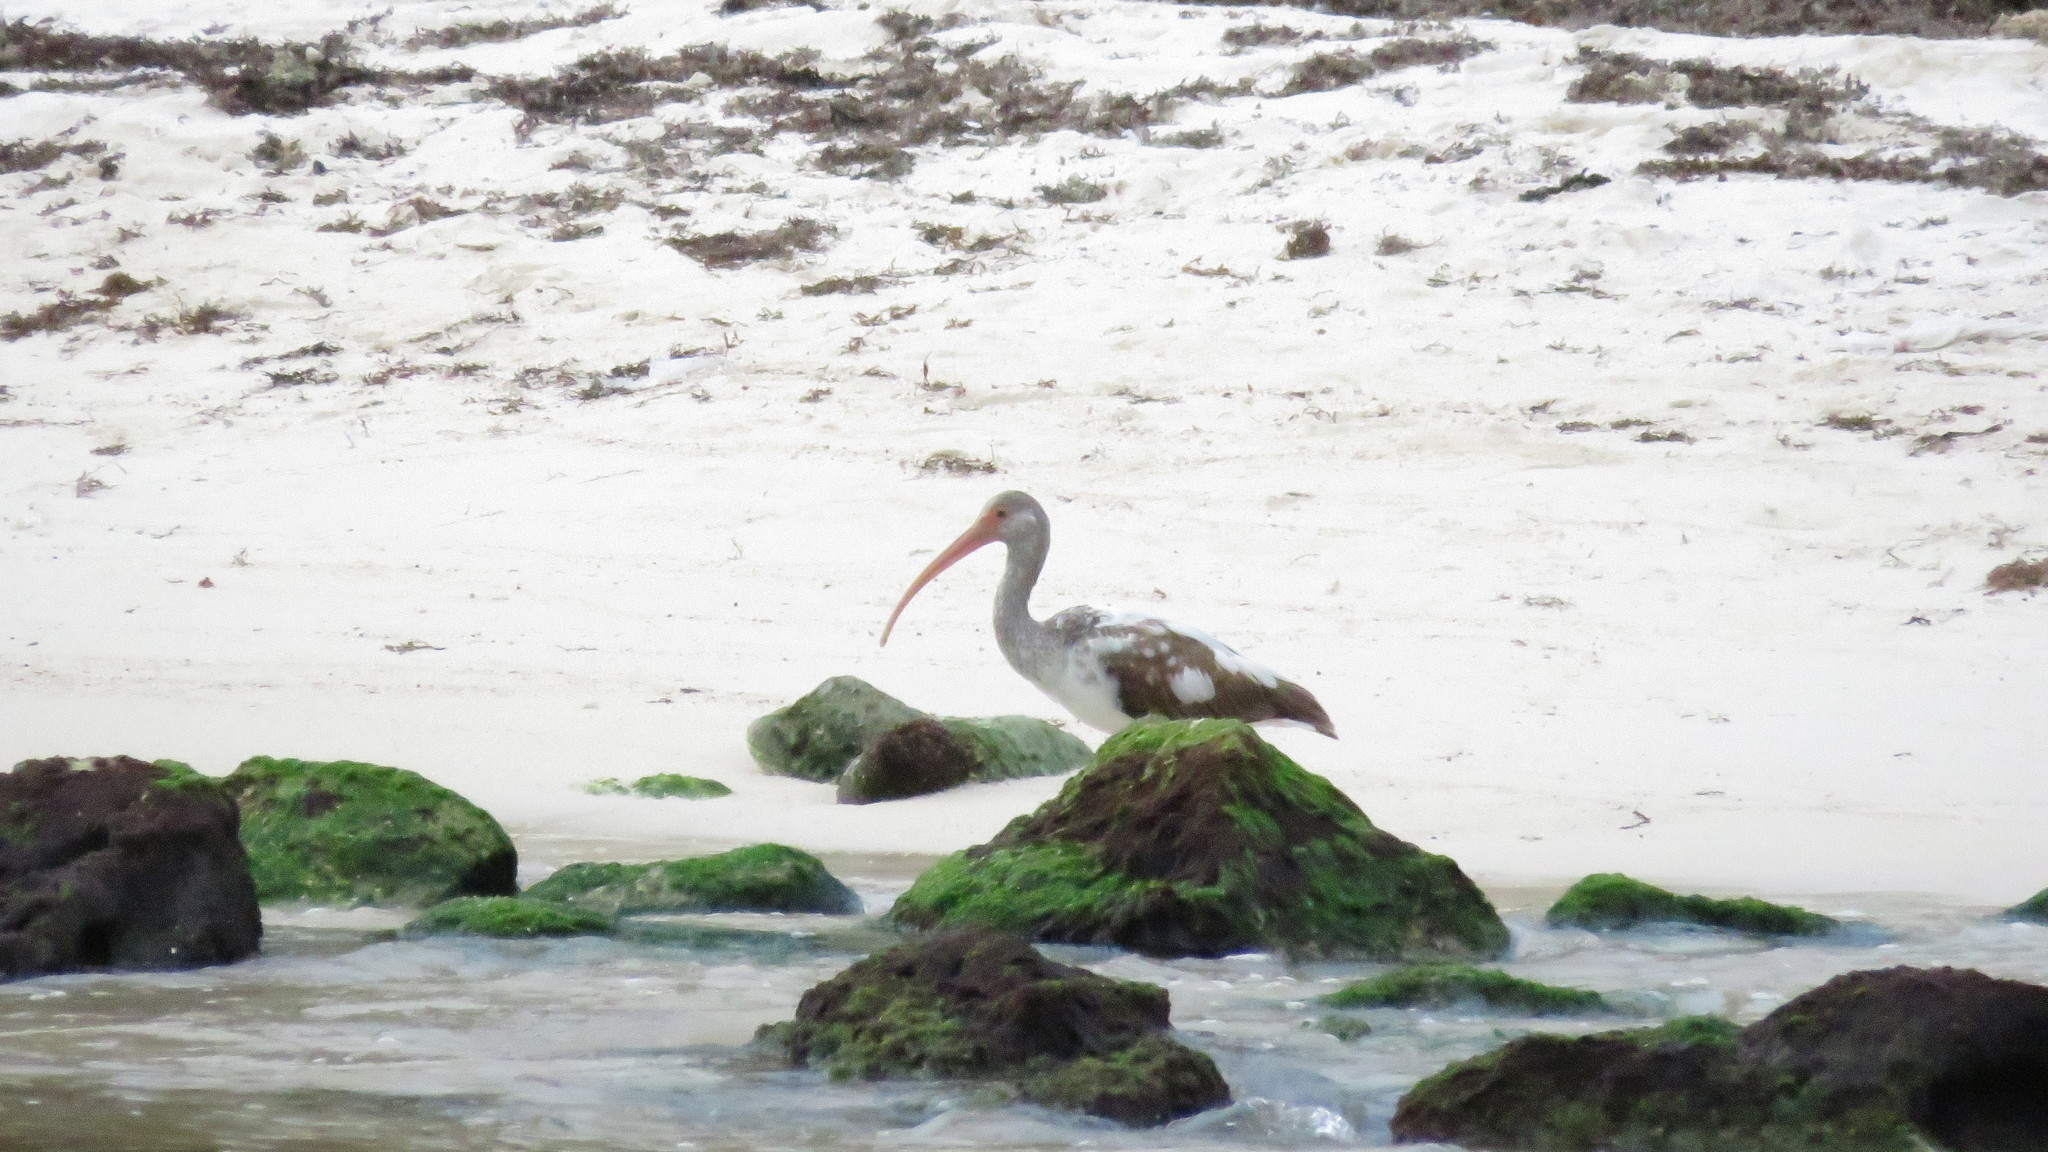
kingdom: Animalia
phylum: Chordata
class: Aves
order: Pelecaniformes
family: Threskiornithidae
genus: Eudocimus
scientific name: Eudocimus albus
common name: White ibis
